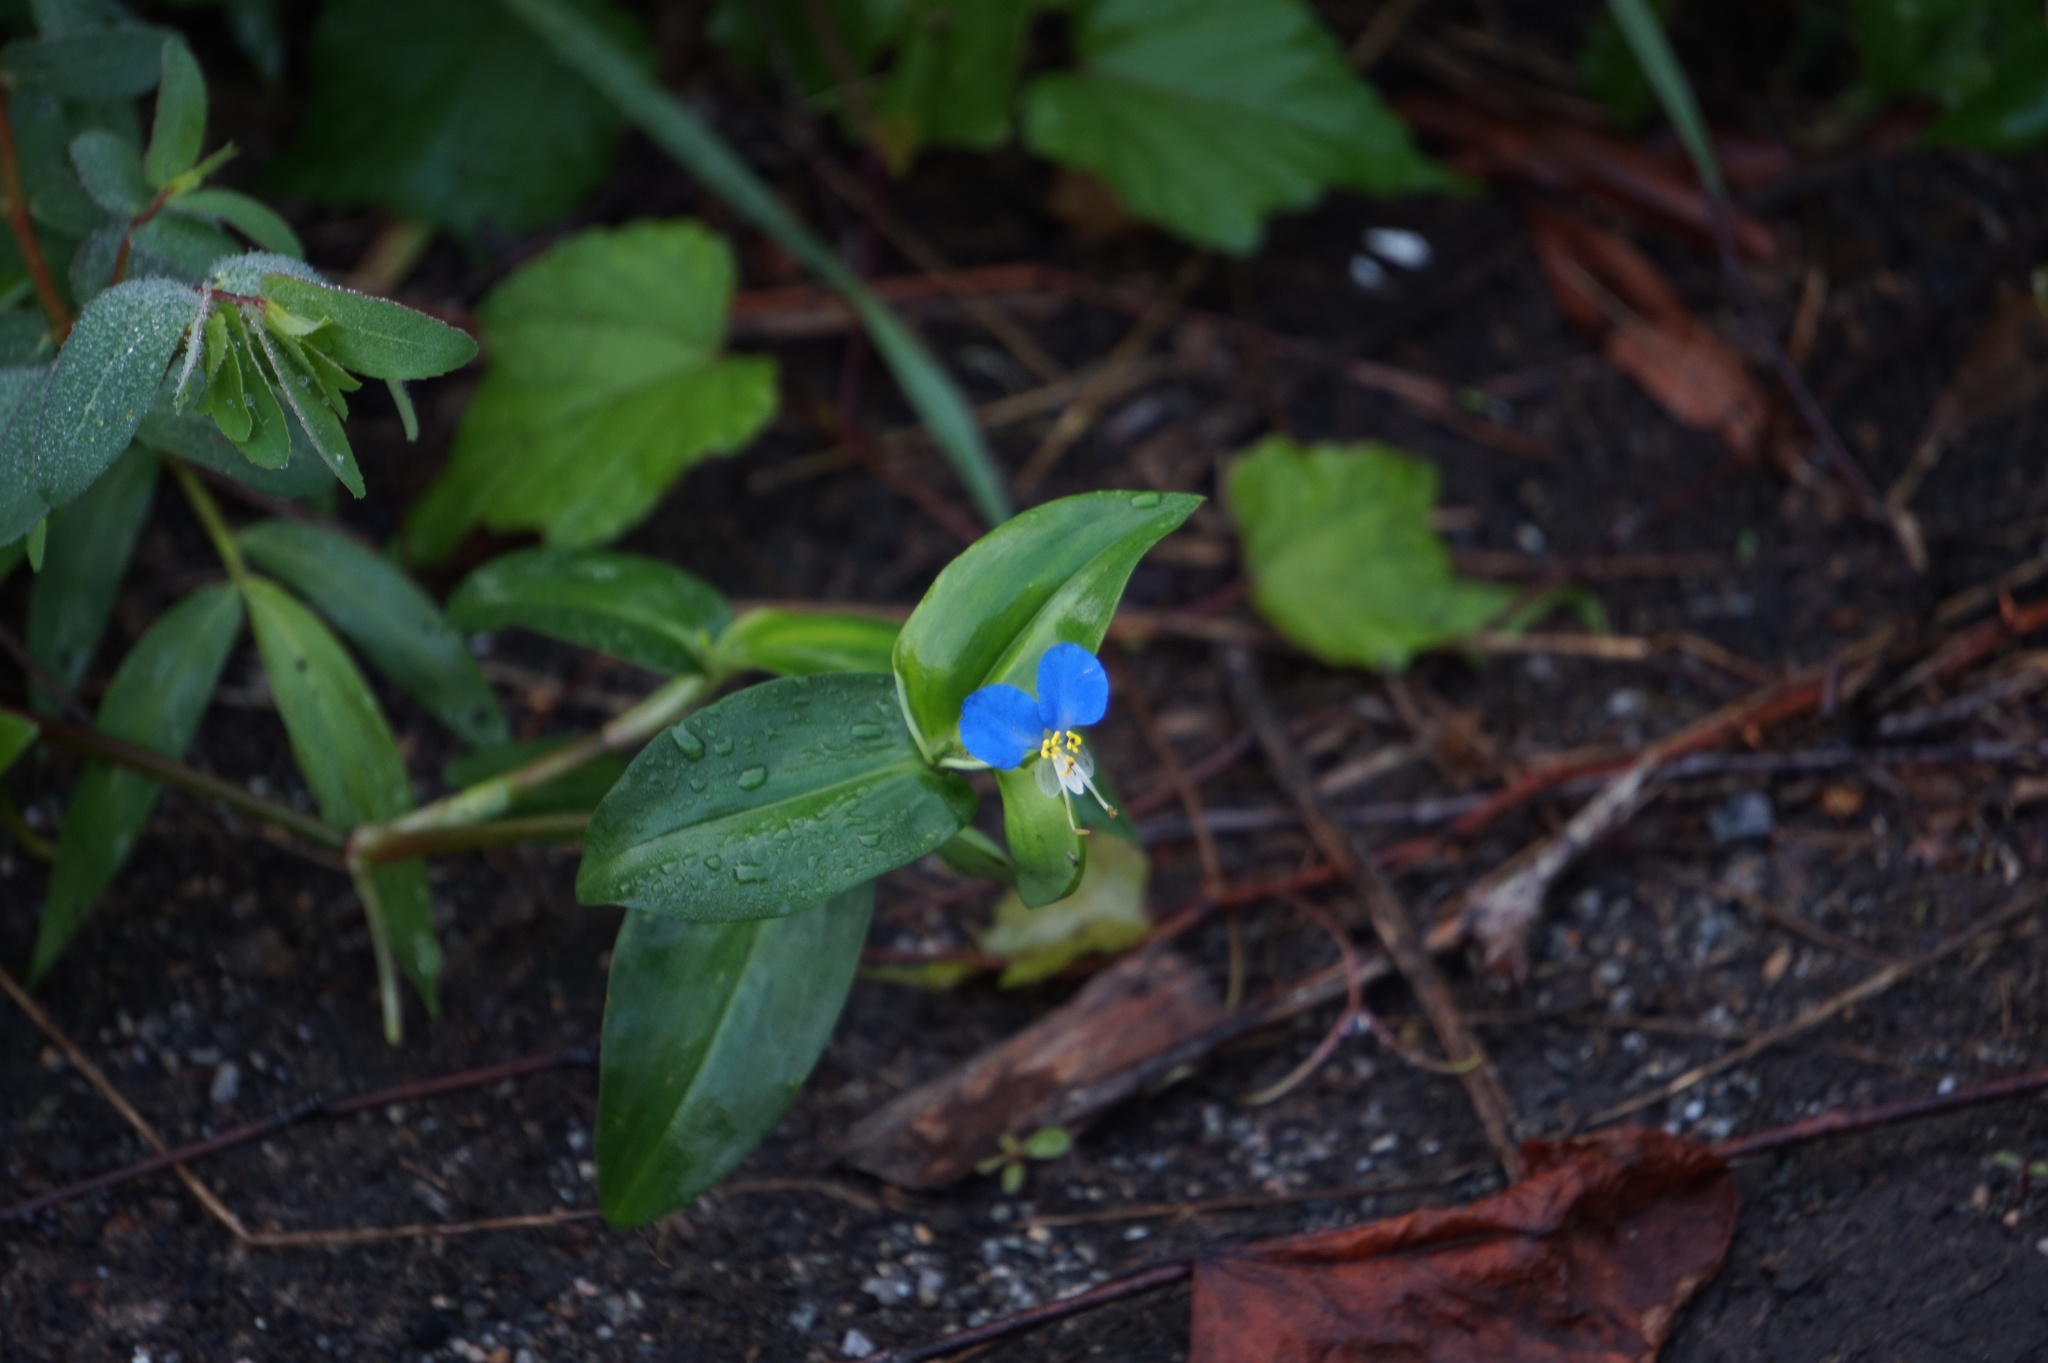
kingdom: Plantae
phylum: Tracheophyta
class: Liliopsida
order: Commelinales
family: Commelinaceae
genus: Commelina
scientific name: Commelina communis
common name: Asiatic dayflower
